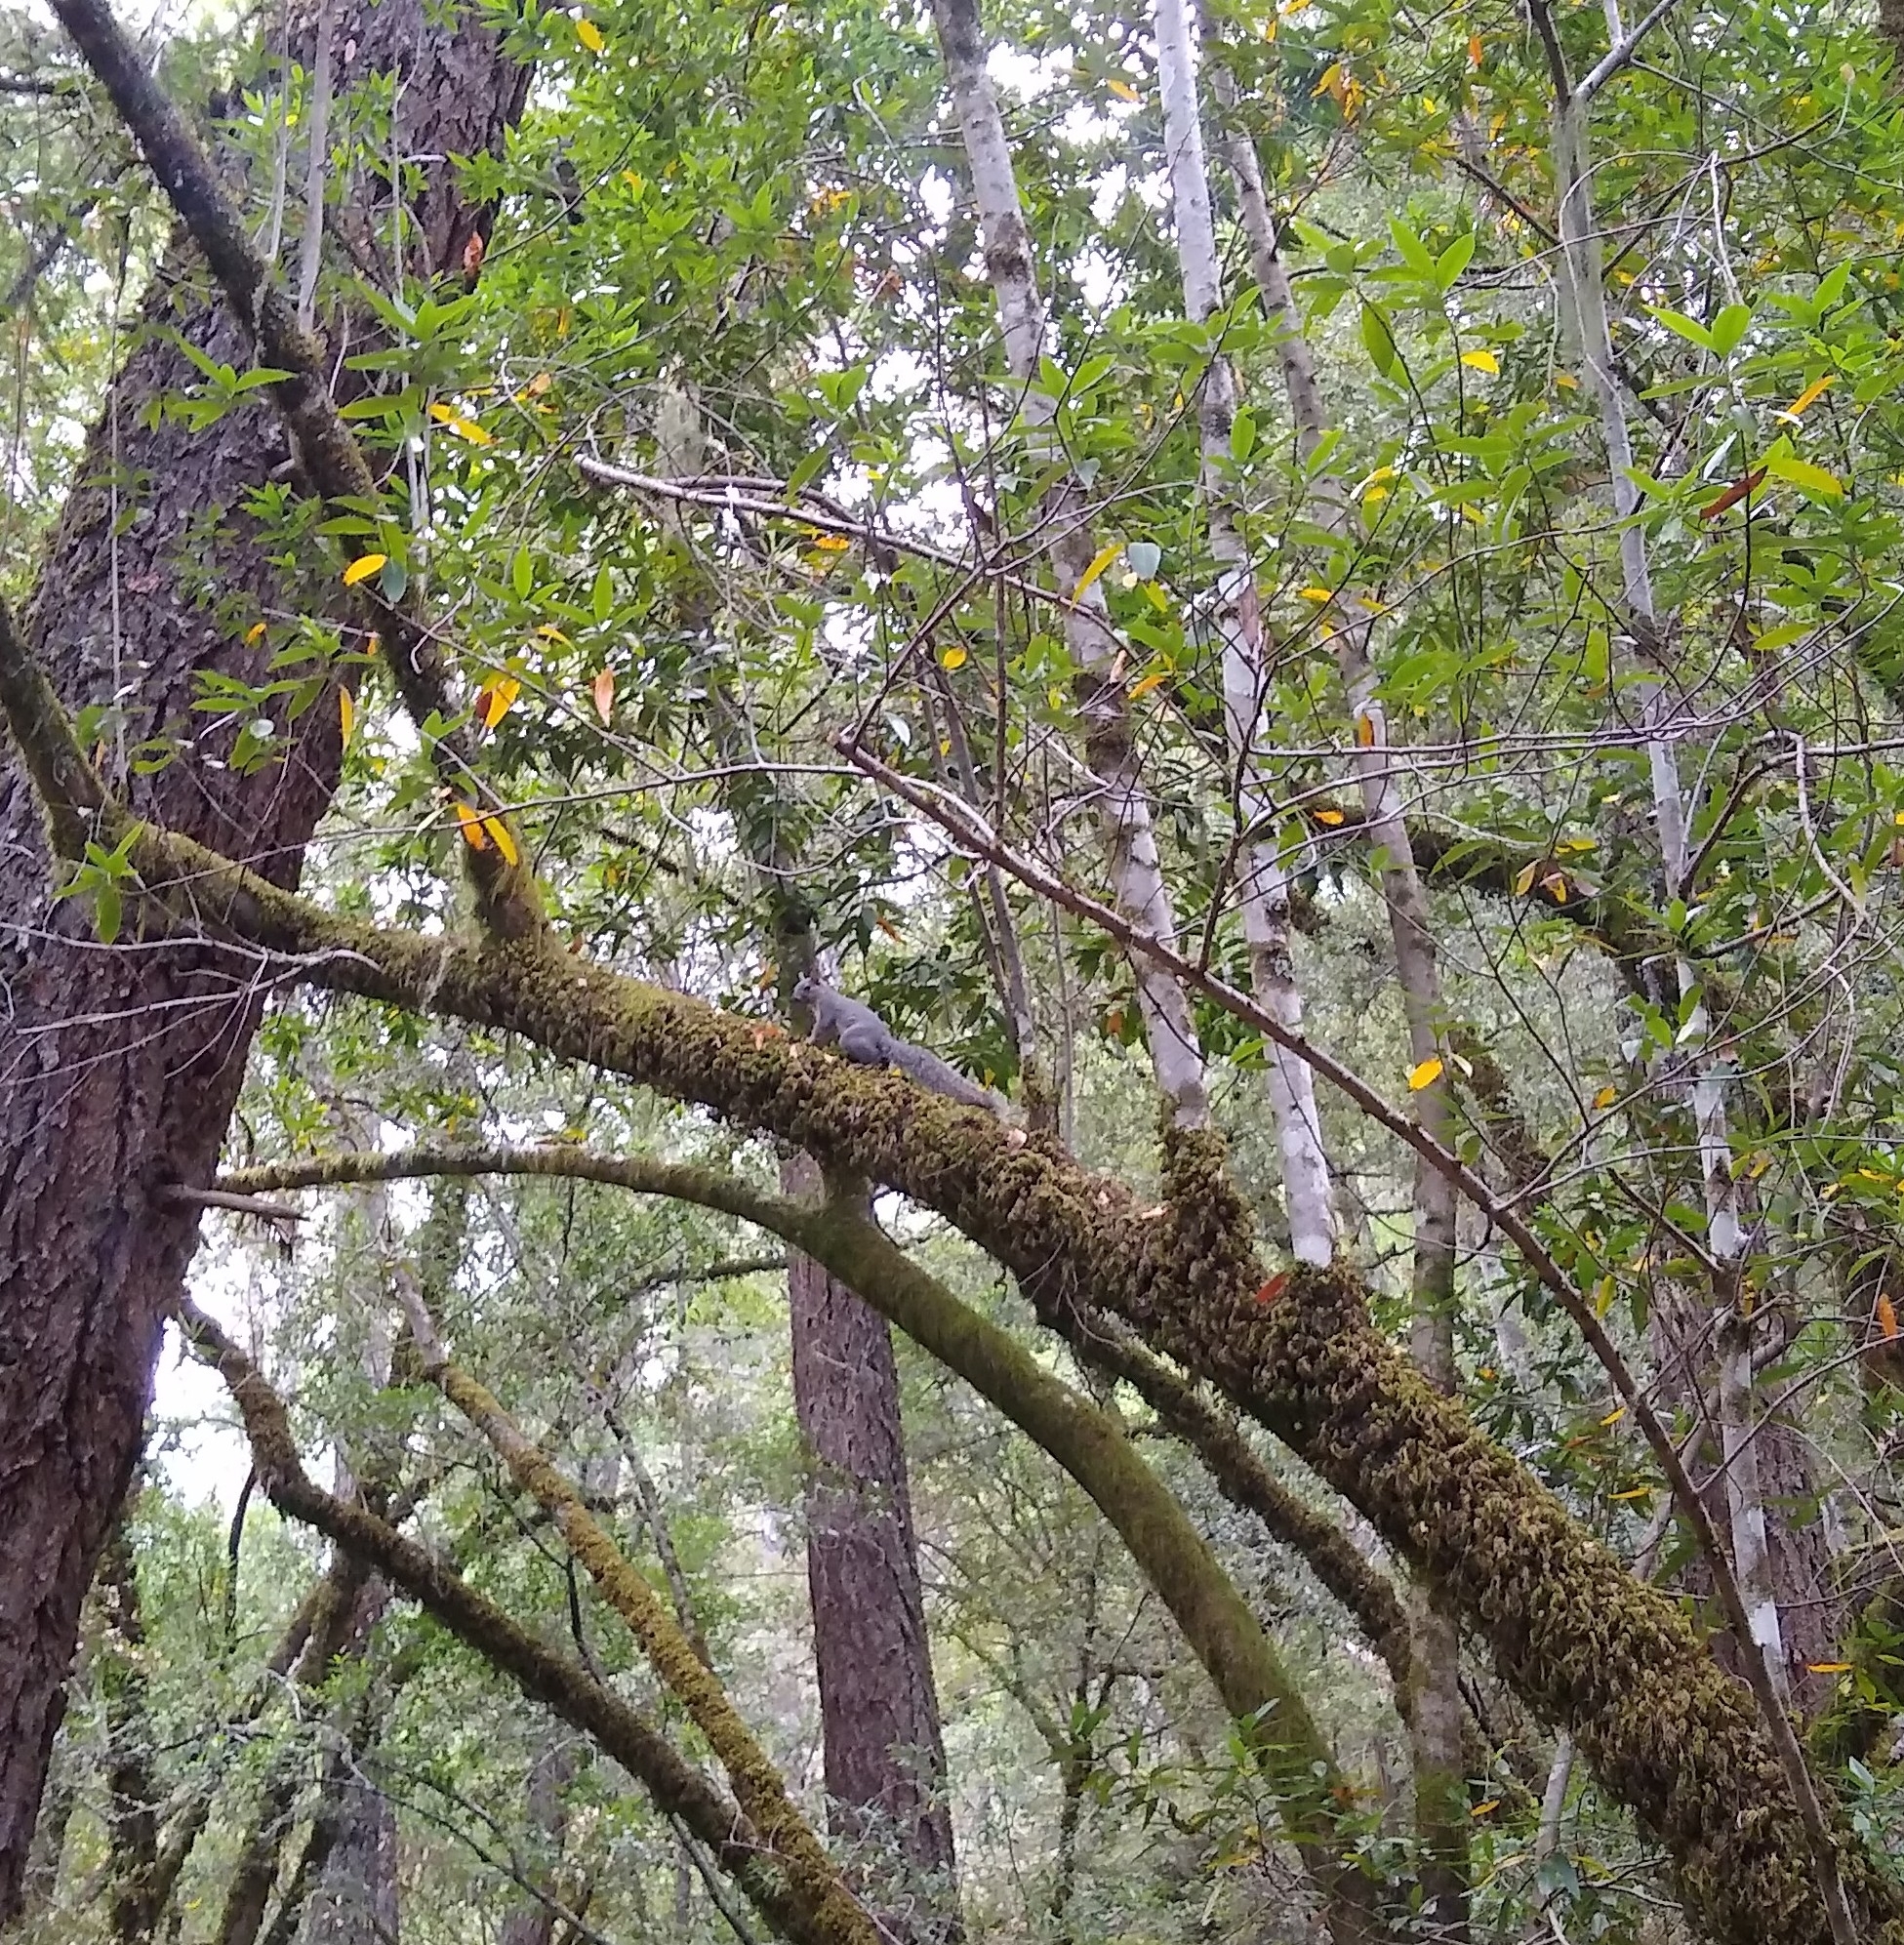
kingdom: Animalia
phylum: Chordata
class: Mammalia
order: Rodentia
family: Sciuridae
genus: Sciurus
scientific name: Sciurus griseus
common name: Western gray squirrel
